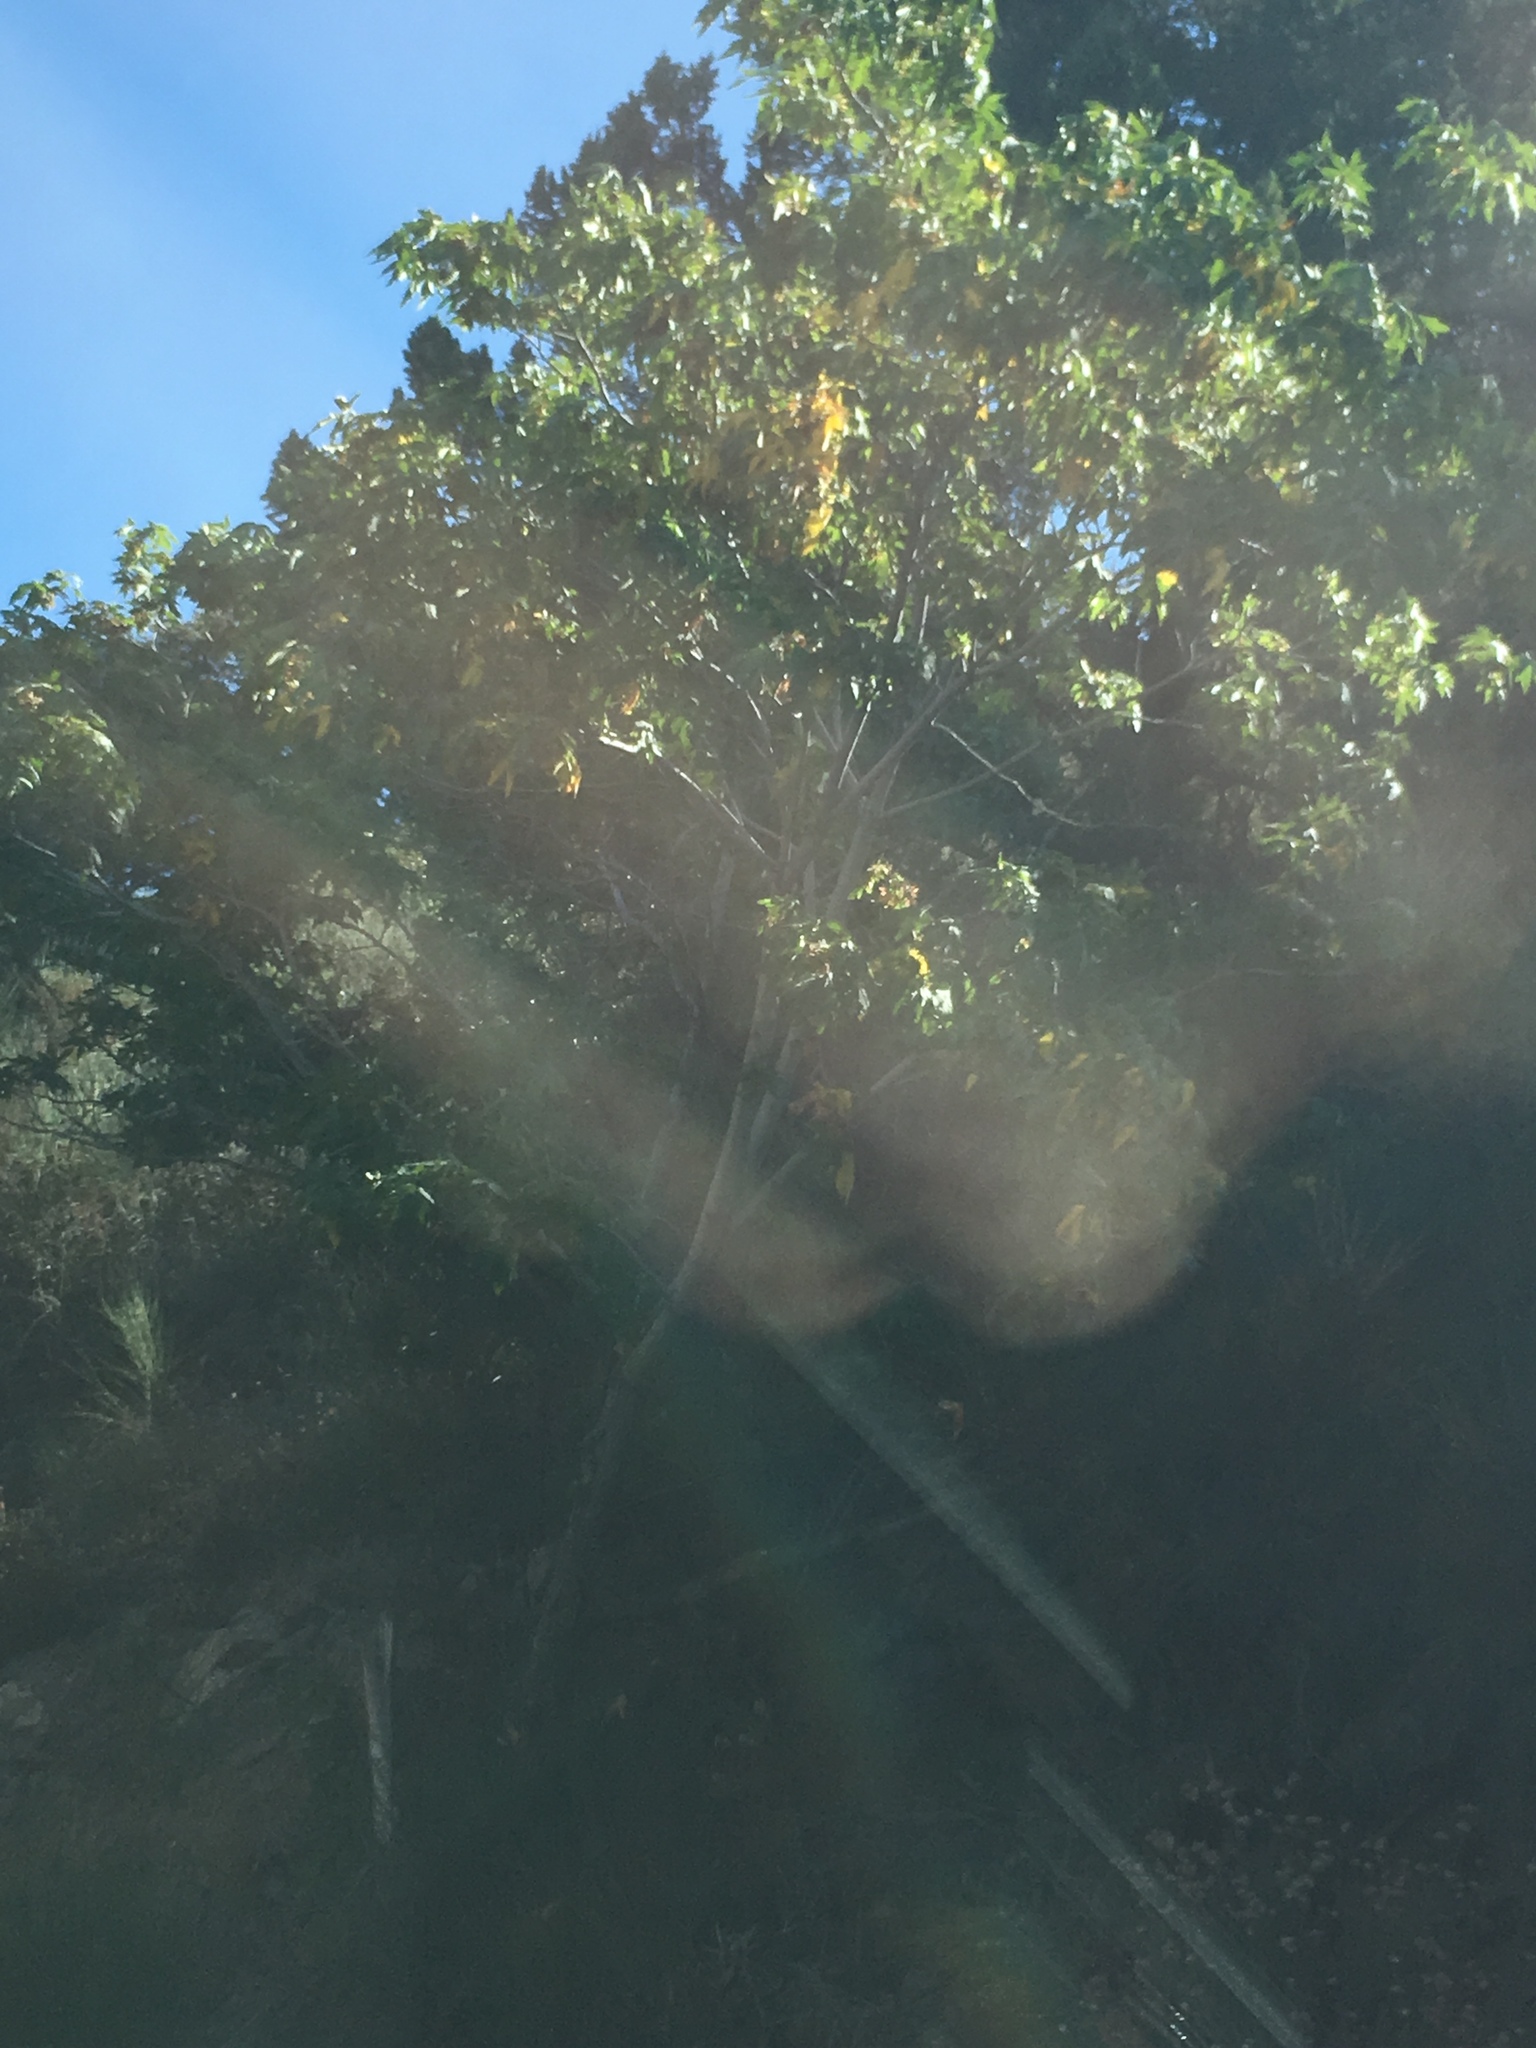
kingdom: Plantae
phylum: Tracheophyta
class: Magnoliopsida
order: Sapindales
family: Sapindaceae
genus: Acer
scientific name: Acer macrophyllum
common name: Oregon maple
